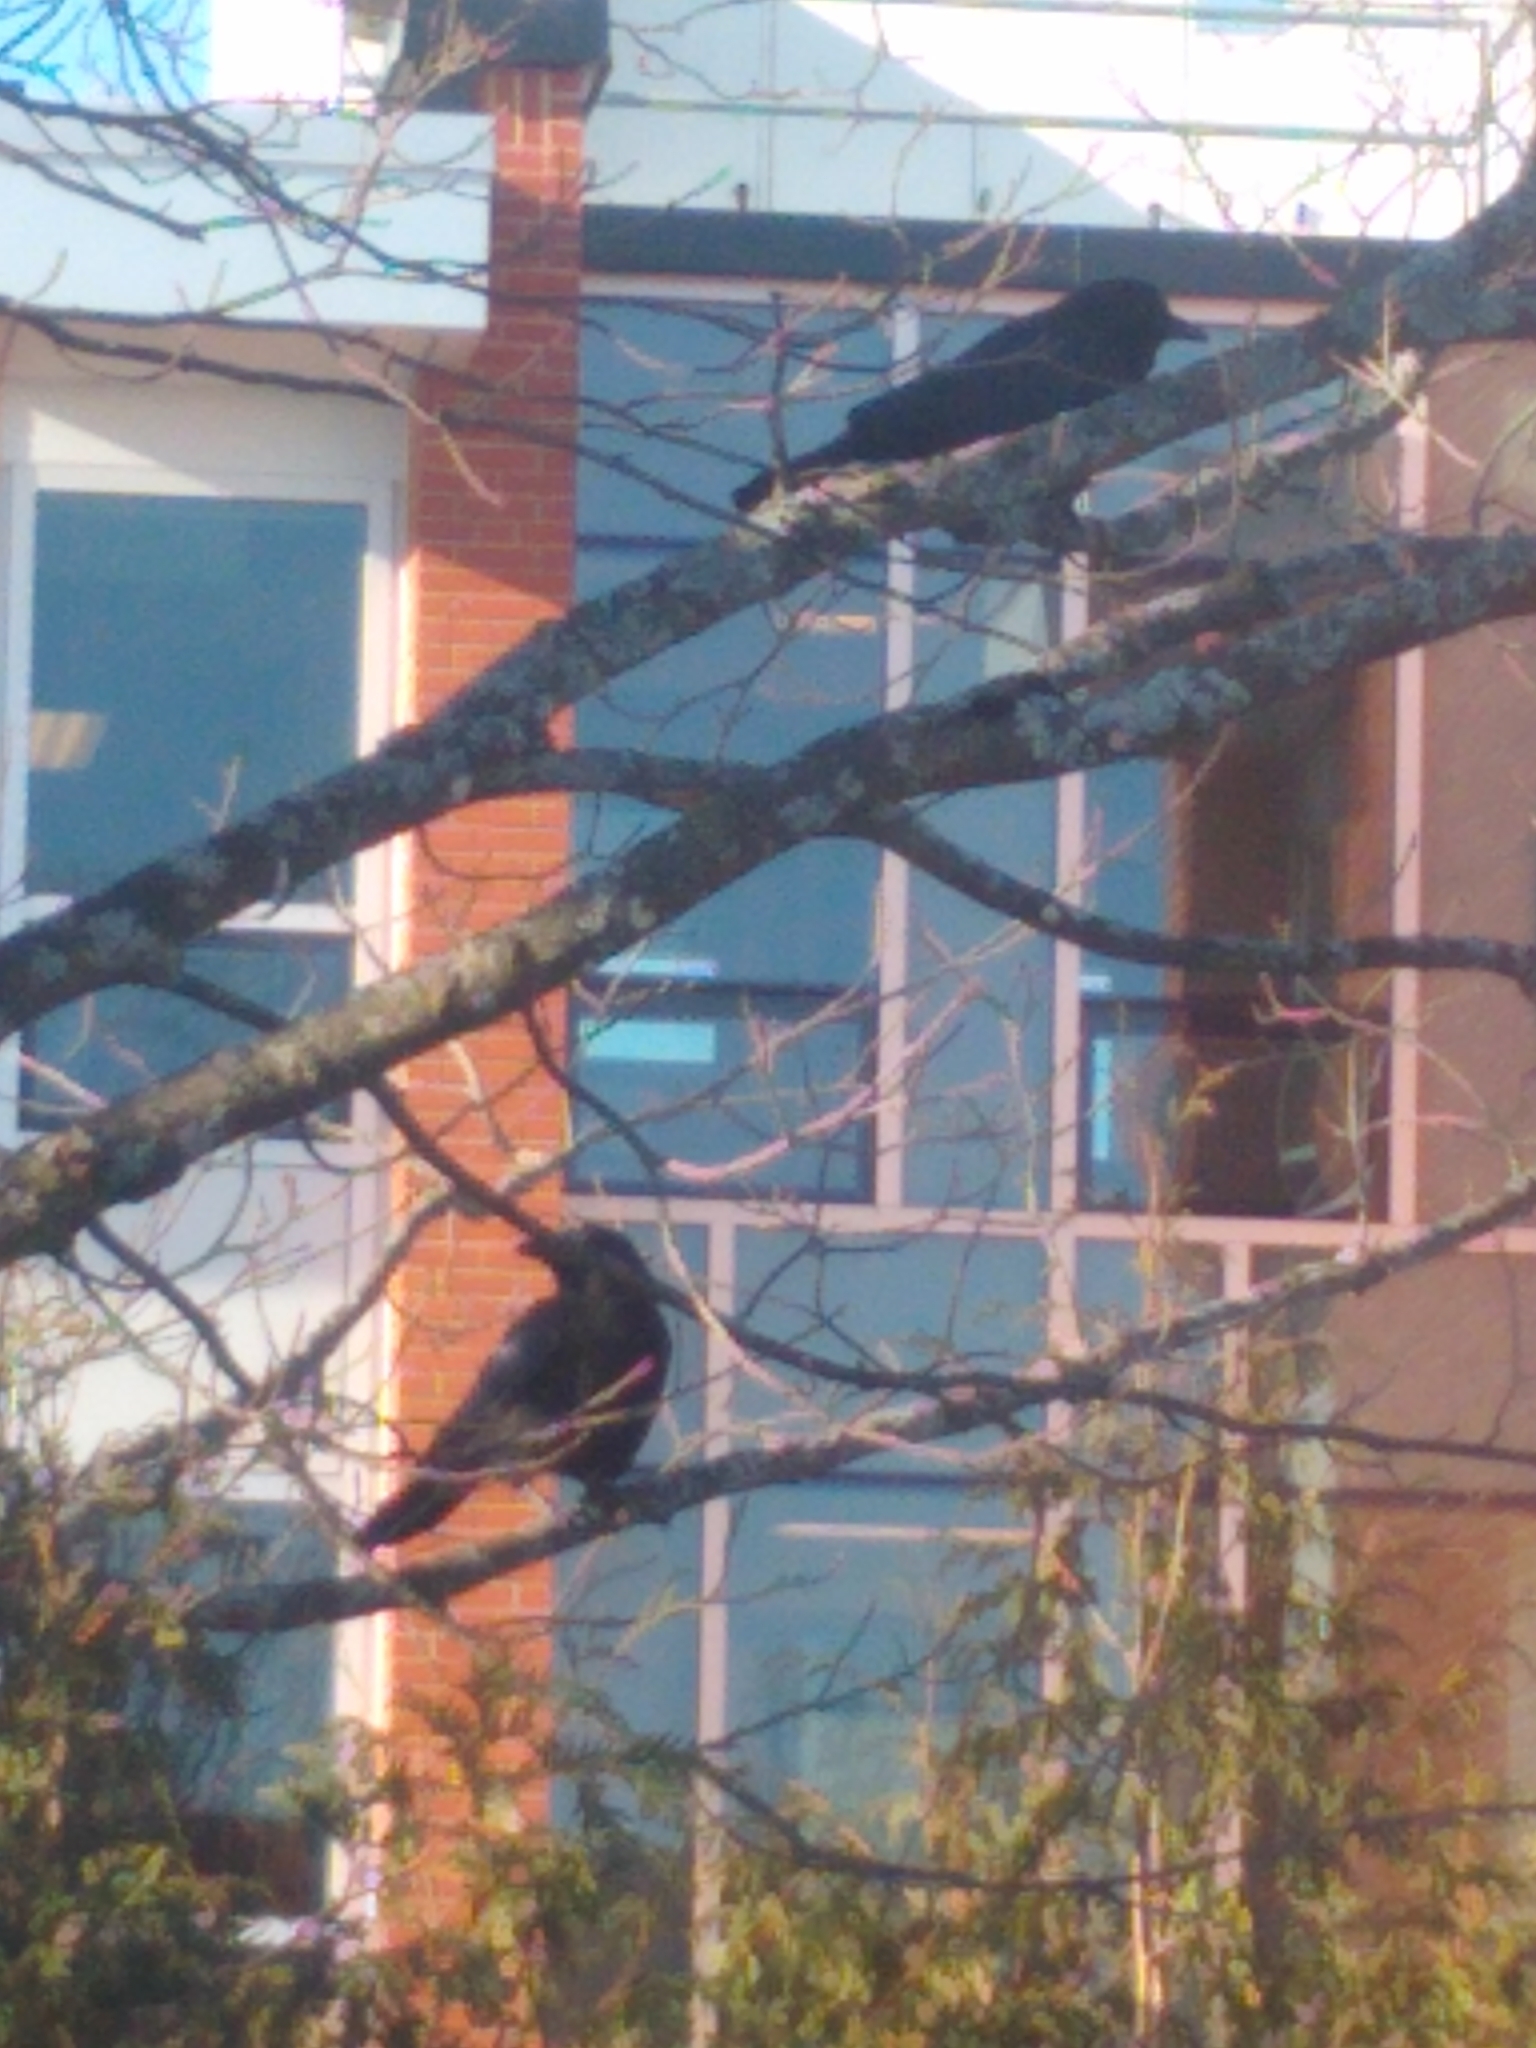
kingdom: Animalia
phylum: Chordata
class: Aves
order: Passeriformes
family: Corvidae
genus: Corvus
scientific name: Corvus brachyrhynchos
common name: American crow
